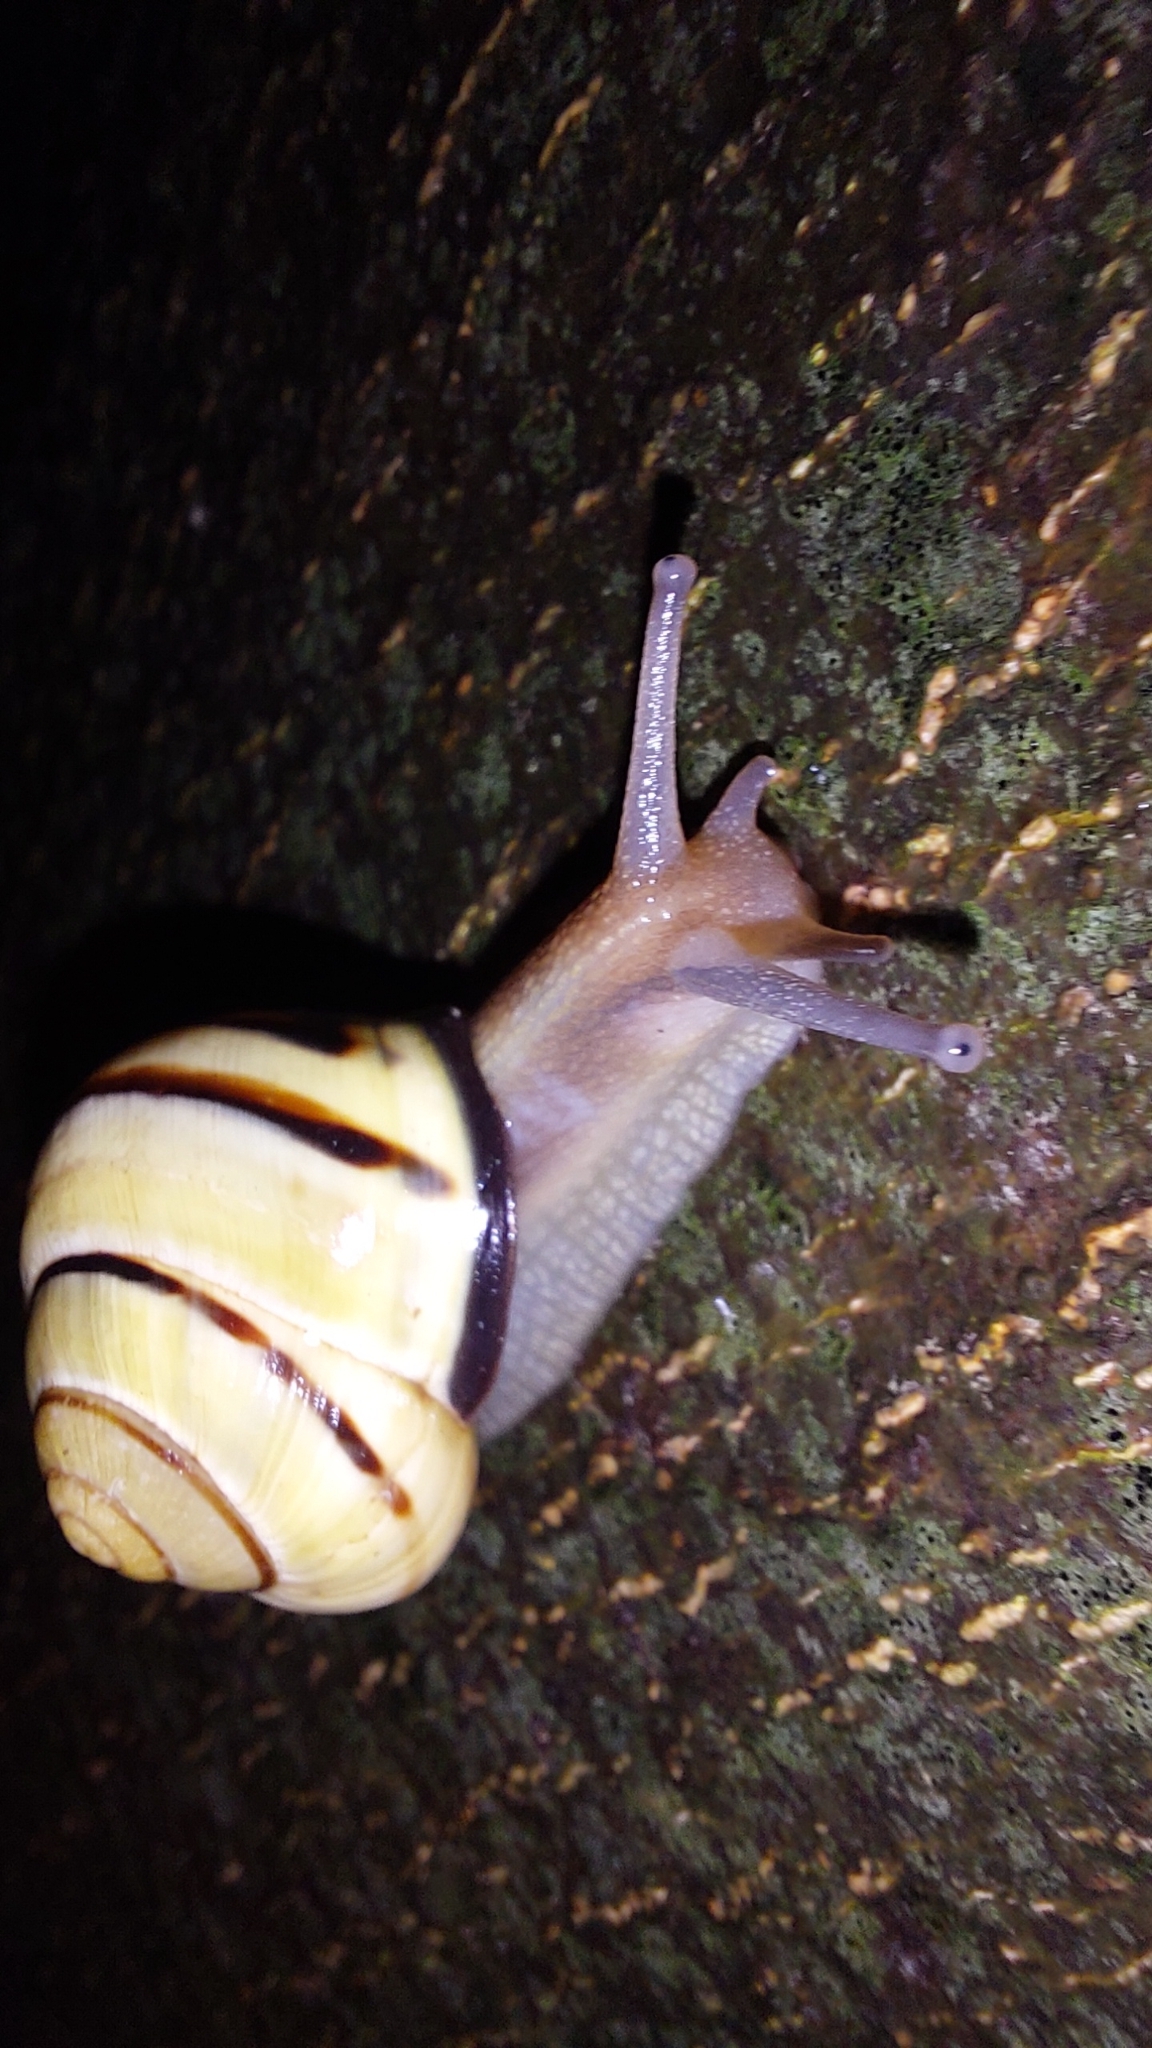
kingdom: Animalia
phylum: Mollusca
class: Gastropoda
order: Stylommatophora
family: Helicidae
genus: Cepaea
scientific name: Cepaea nemoralis
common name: Grovesnail
